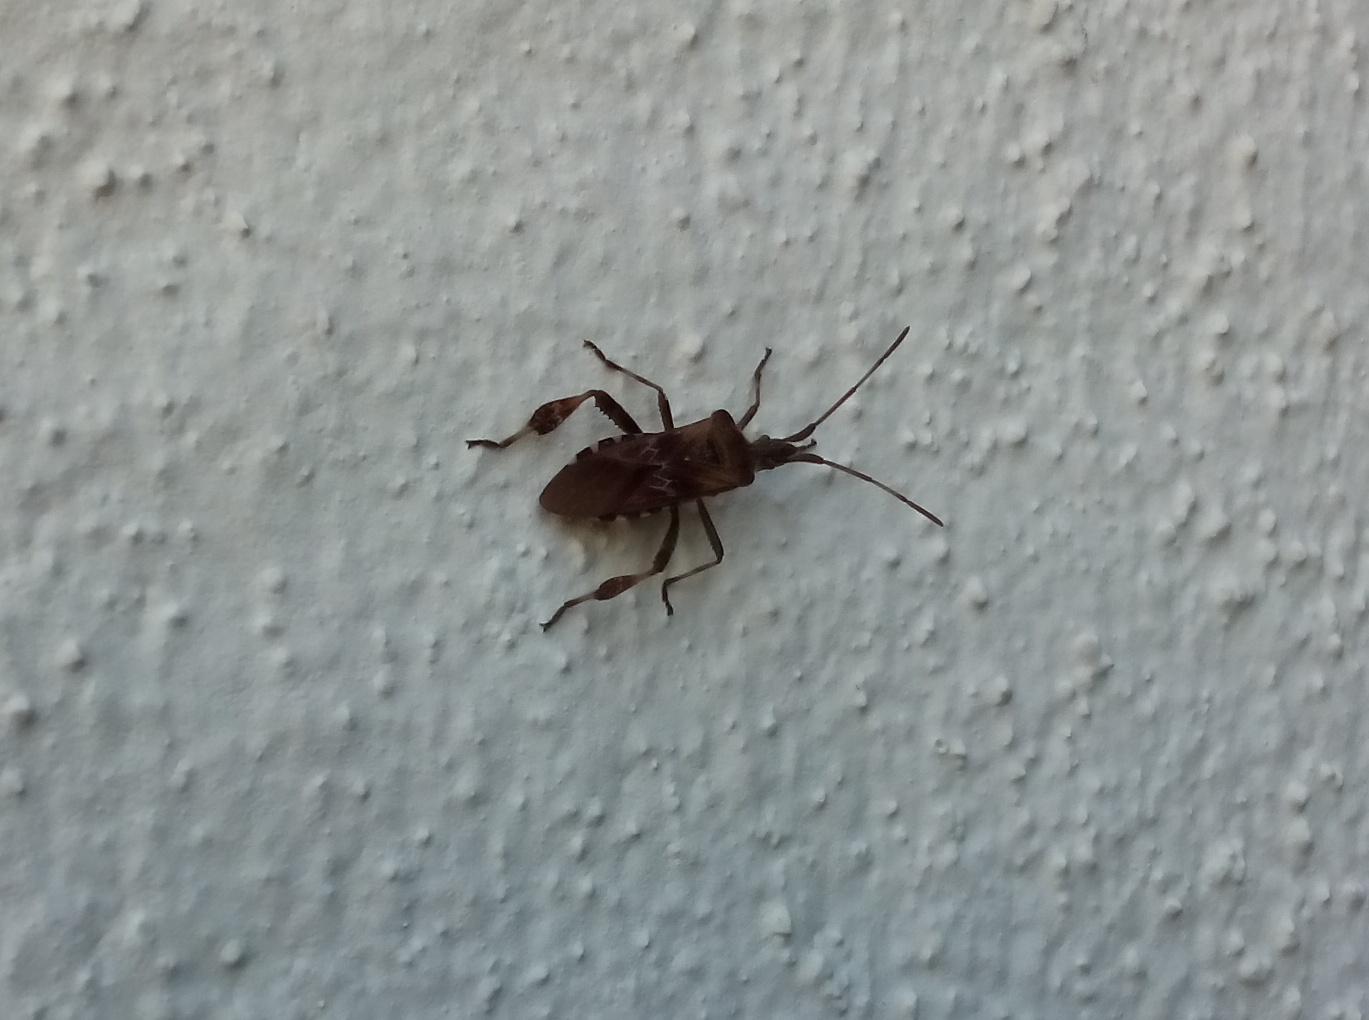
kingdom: Animalia
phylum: Arthropoda
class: Insecta
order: Hemiptera
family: Coreidae
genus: Leptoglossus
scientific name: Leptoglossus occidentalis
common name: Western conifer-seed bug
